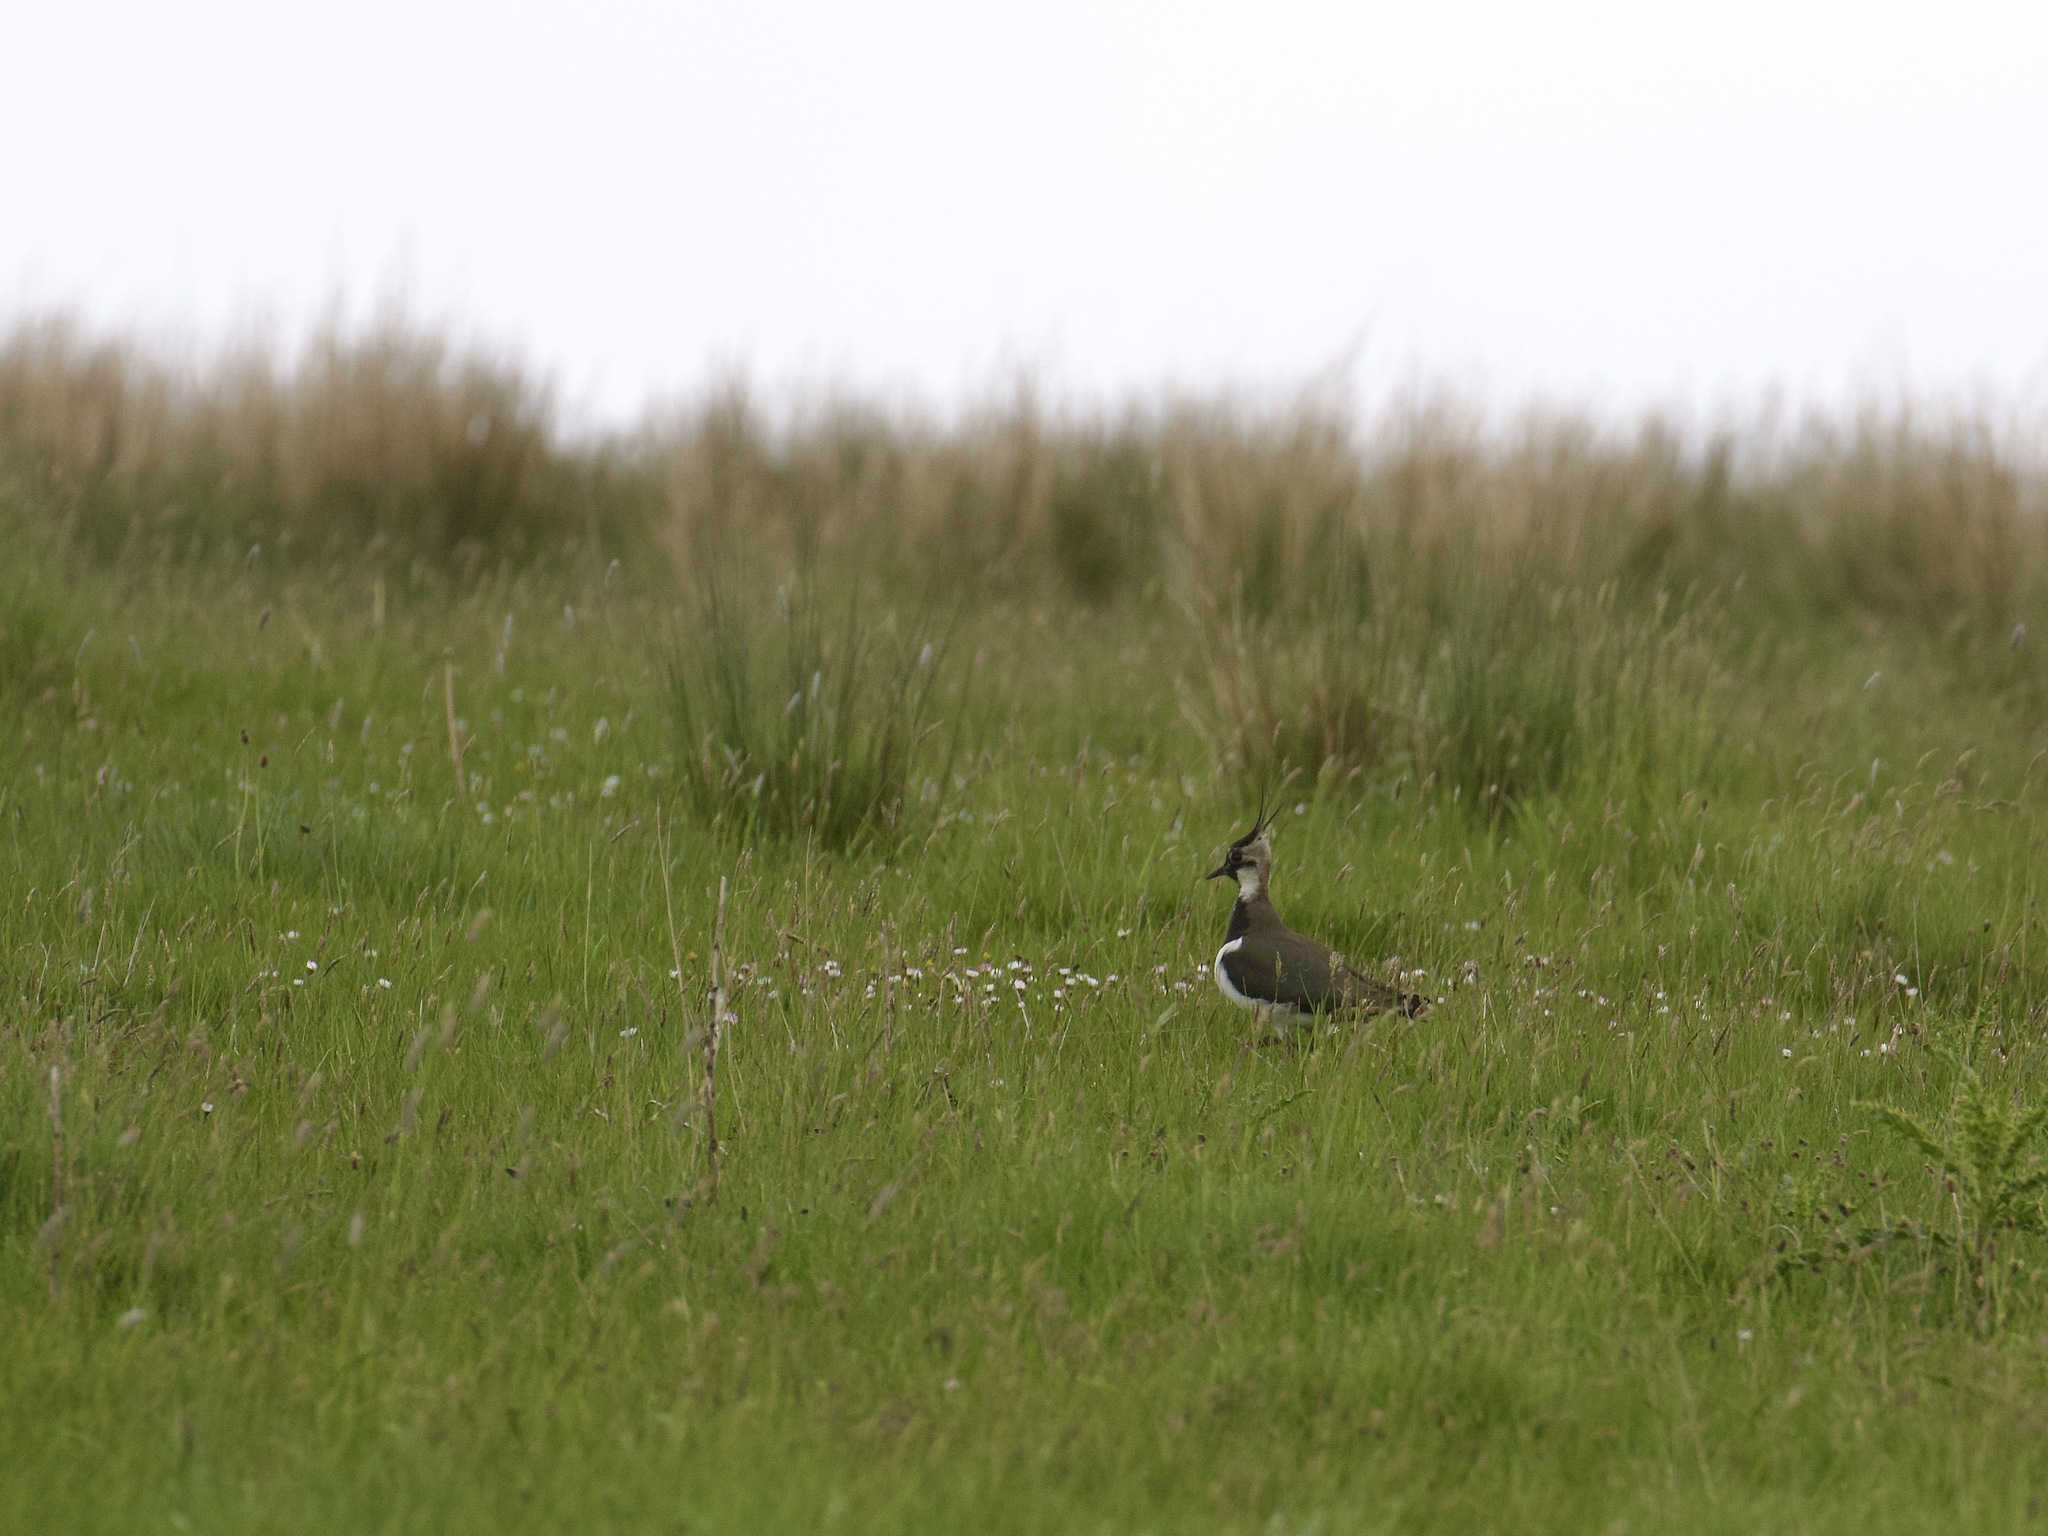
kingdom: Animalia
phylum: Chordata
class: Aves
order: Charadriiformes
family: Charadriidae
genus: Vanellus
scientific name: Vanellus vanellus
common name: Northern lapwing
